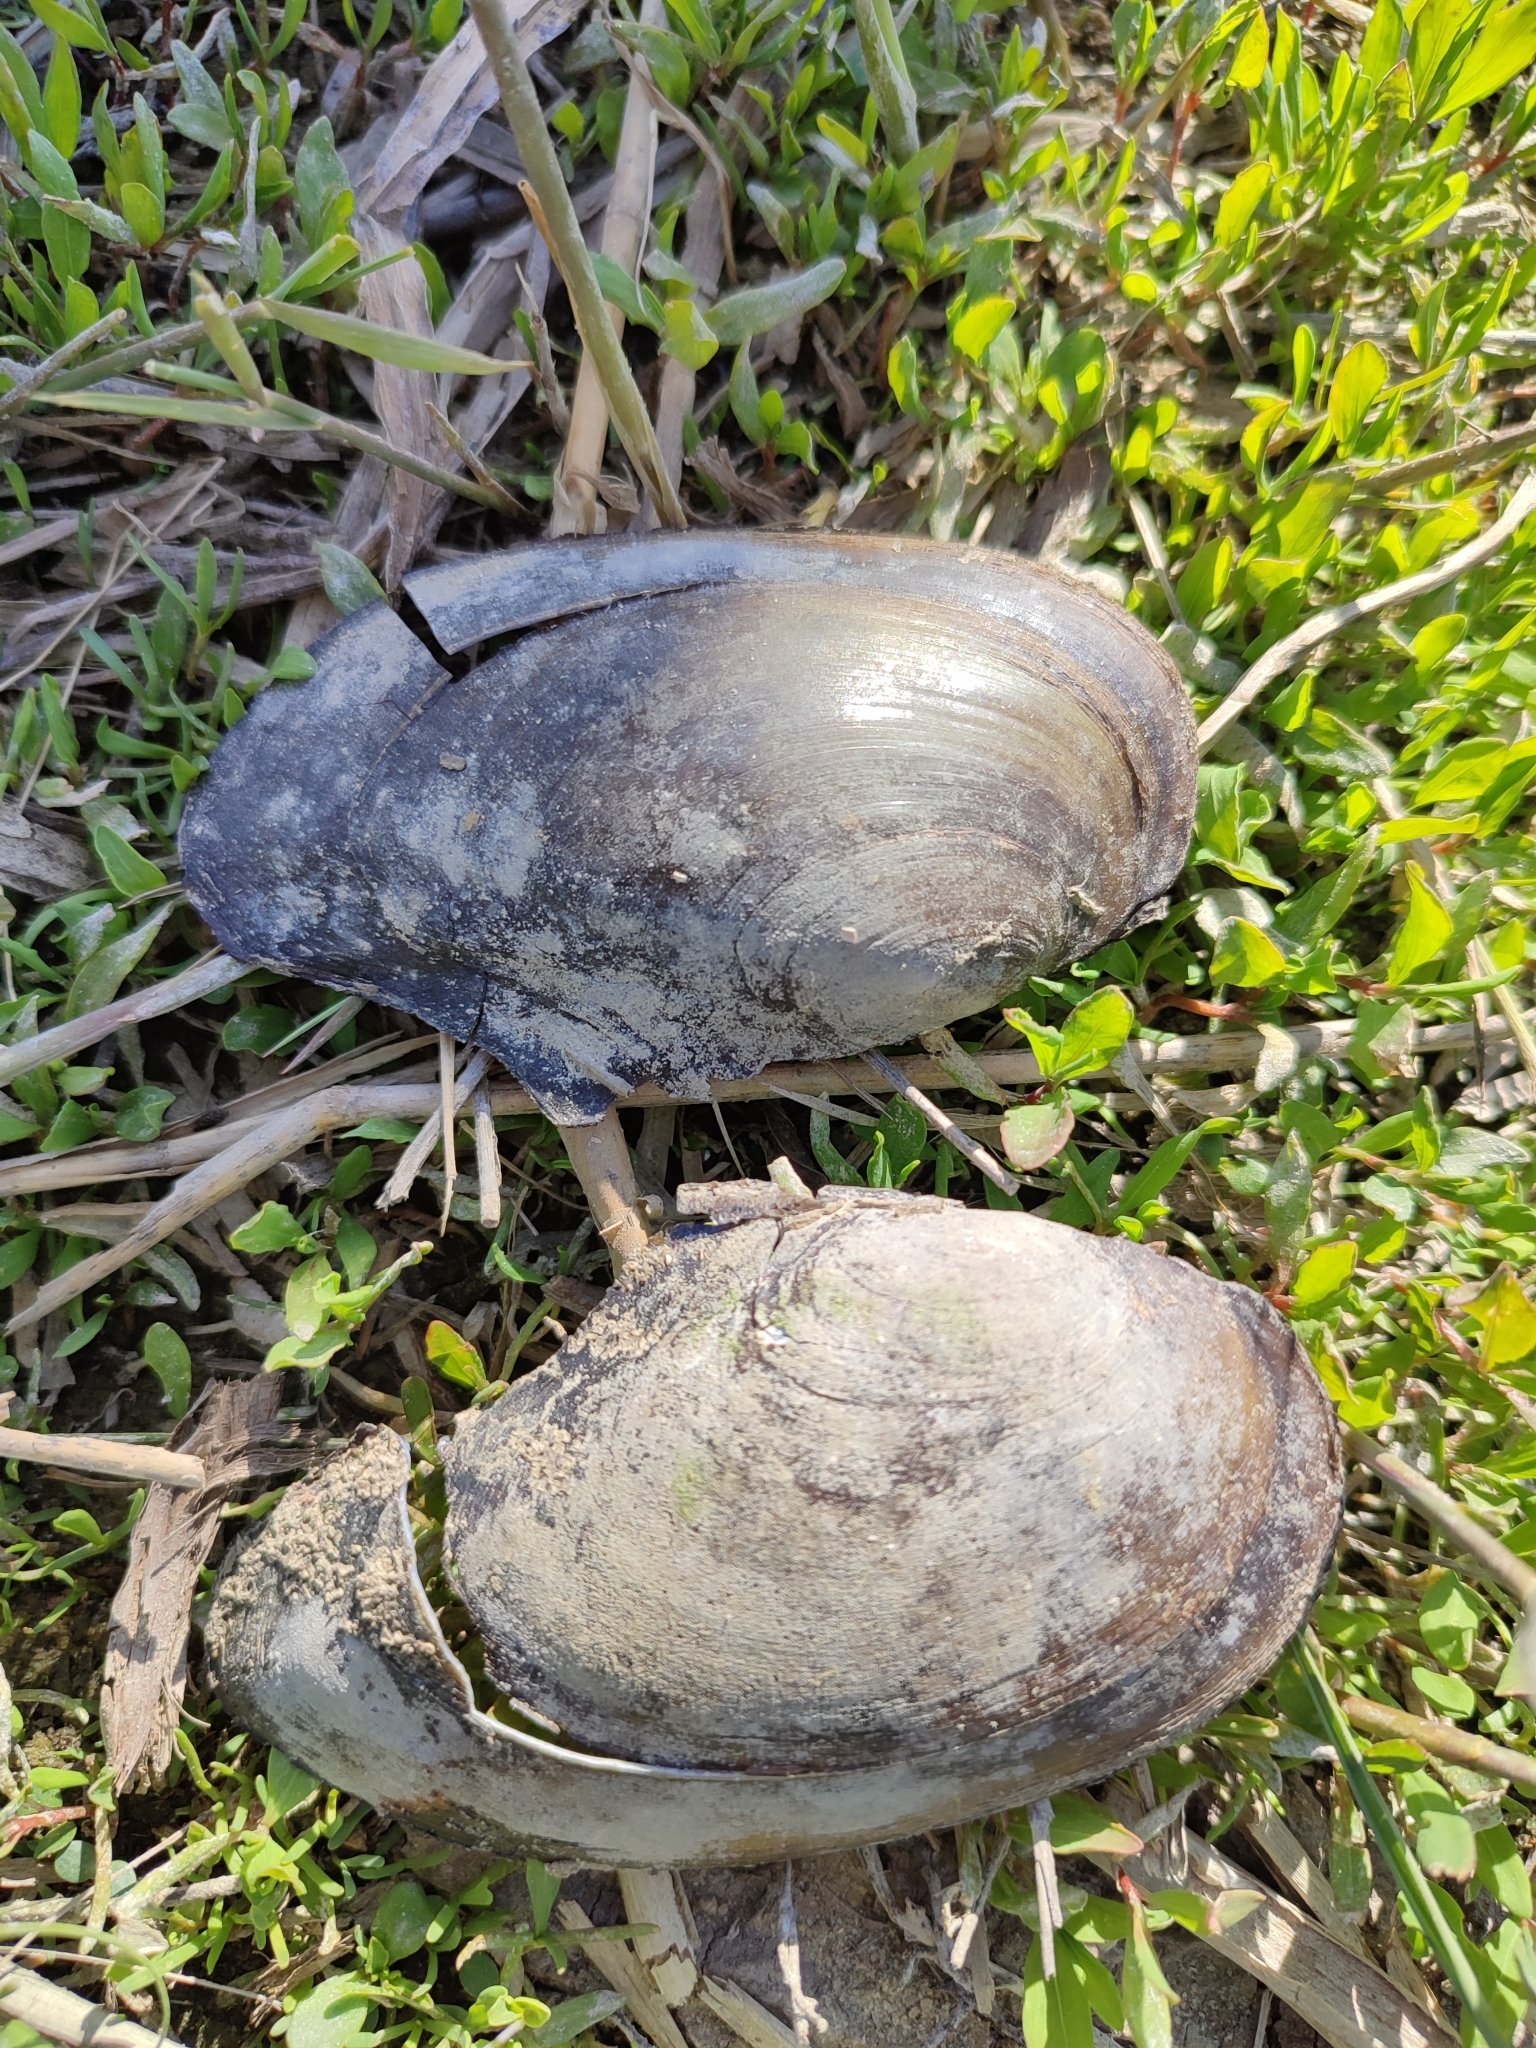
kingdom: Animalia
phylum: Mollusca
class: Bivalvia
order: Unionida
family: Unionidae
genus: Anodonta
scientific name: Anodonta anatina
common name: Duck mussel
